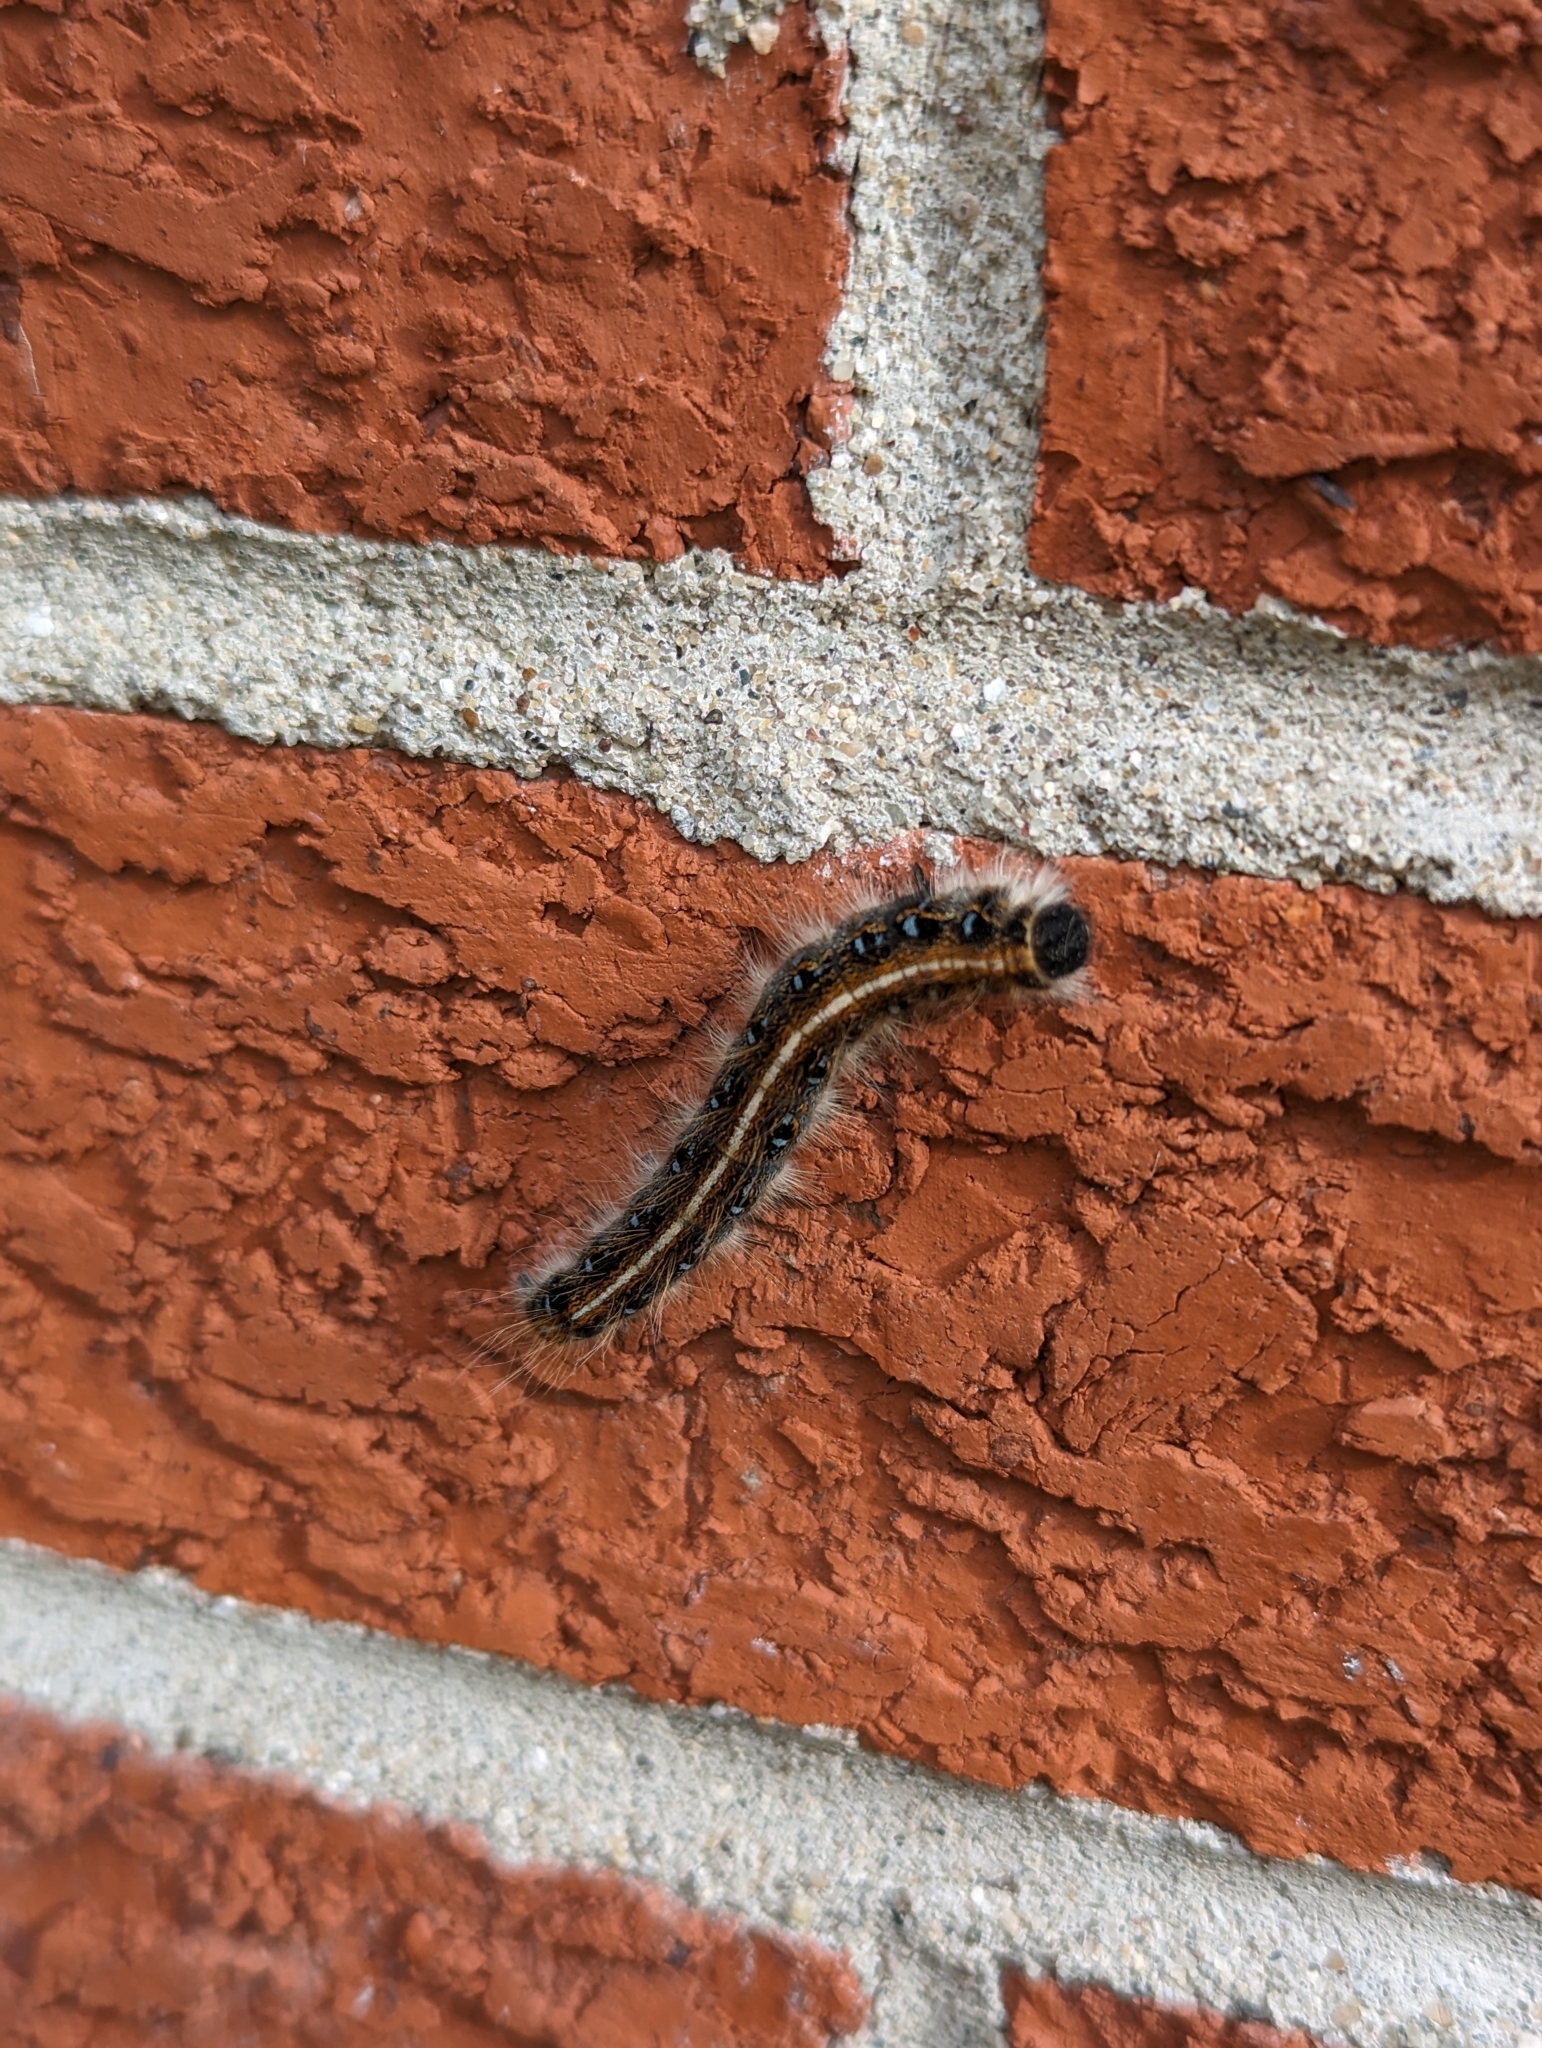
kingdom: Animalia
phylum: Arthropoda
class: Insecta
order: Lepidoptera
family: Lasiocampidae
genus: Malacosoma
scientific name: Malacosoma americana
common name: Eastern tent caterpillar moth
